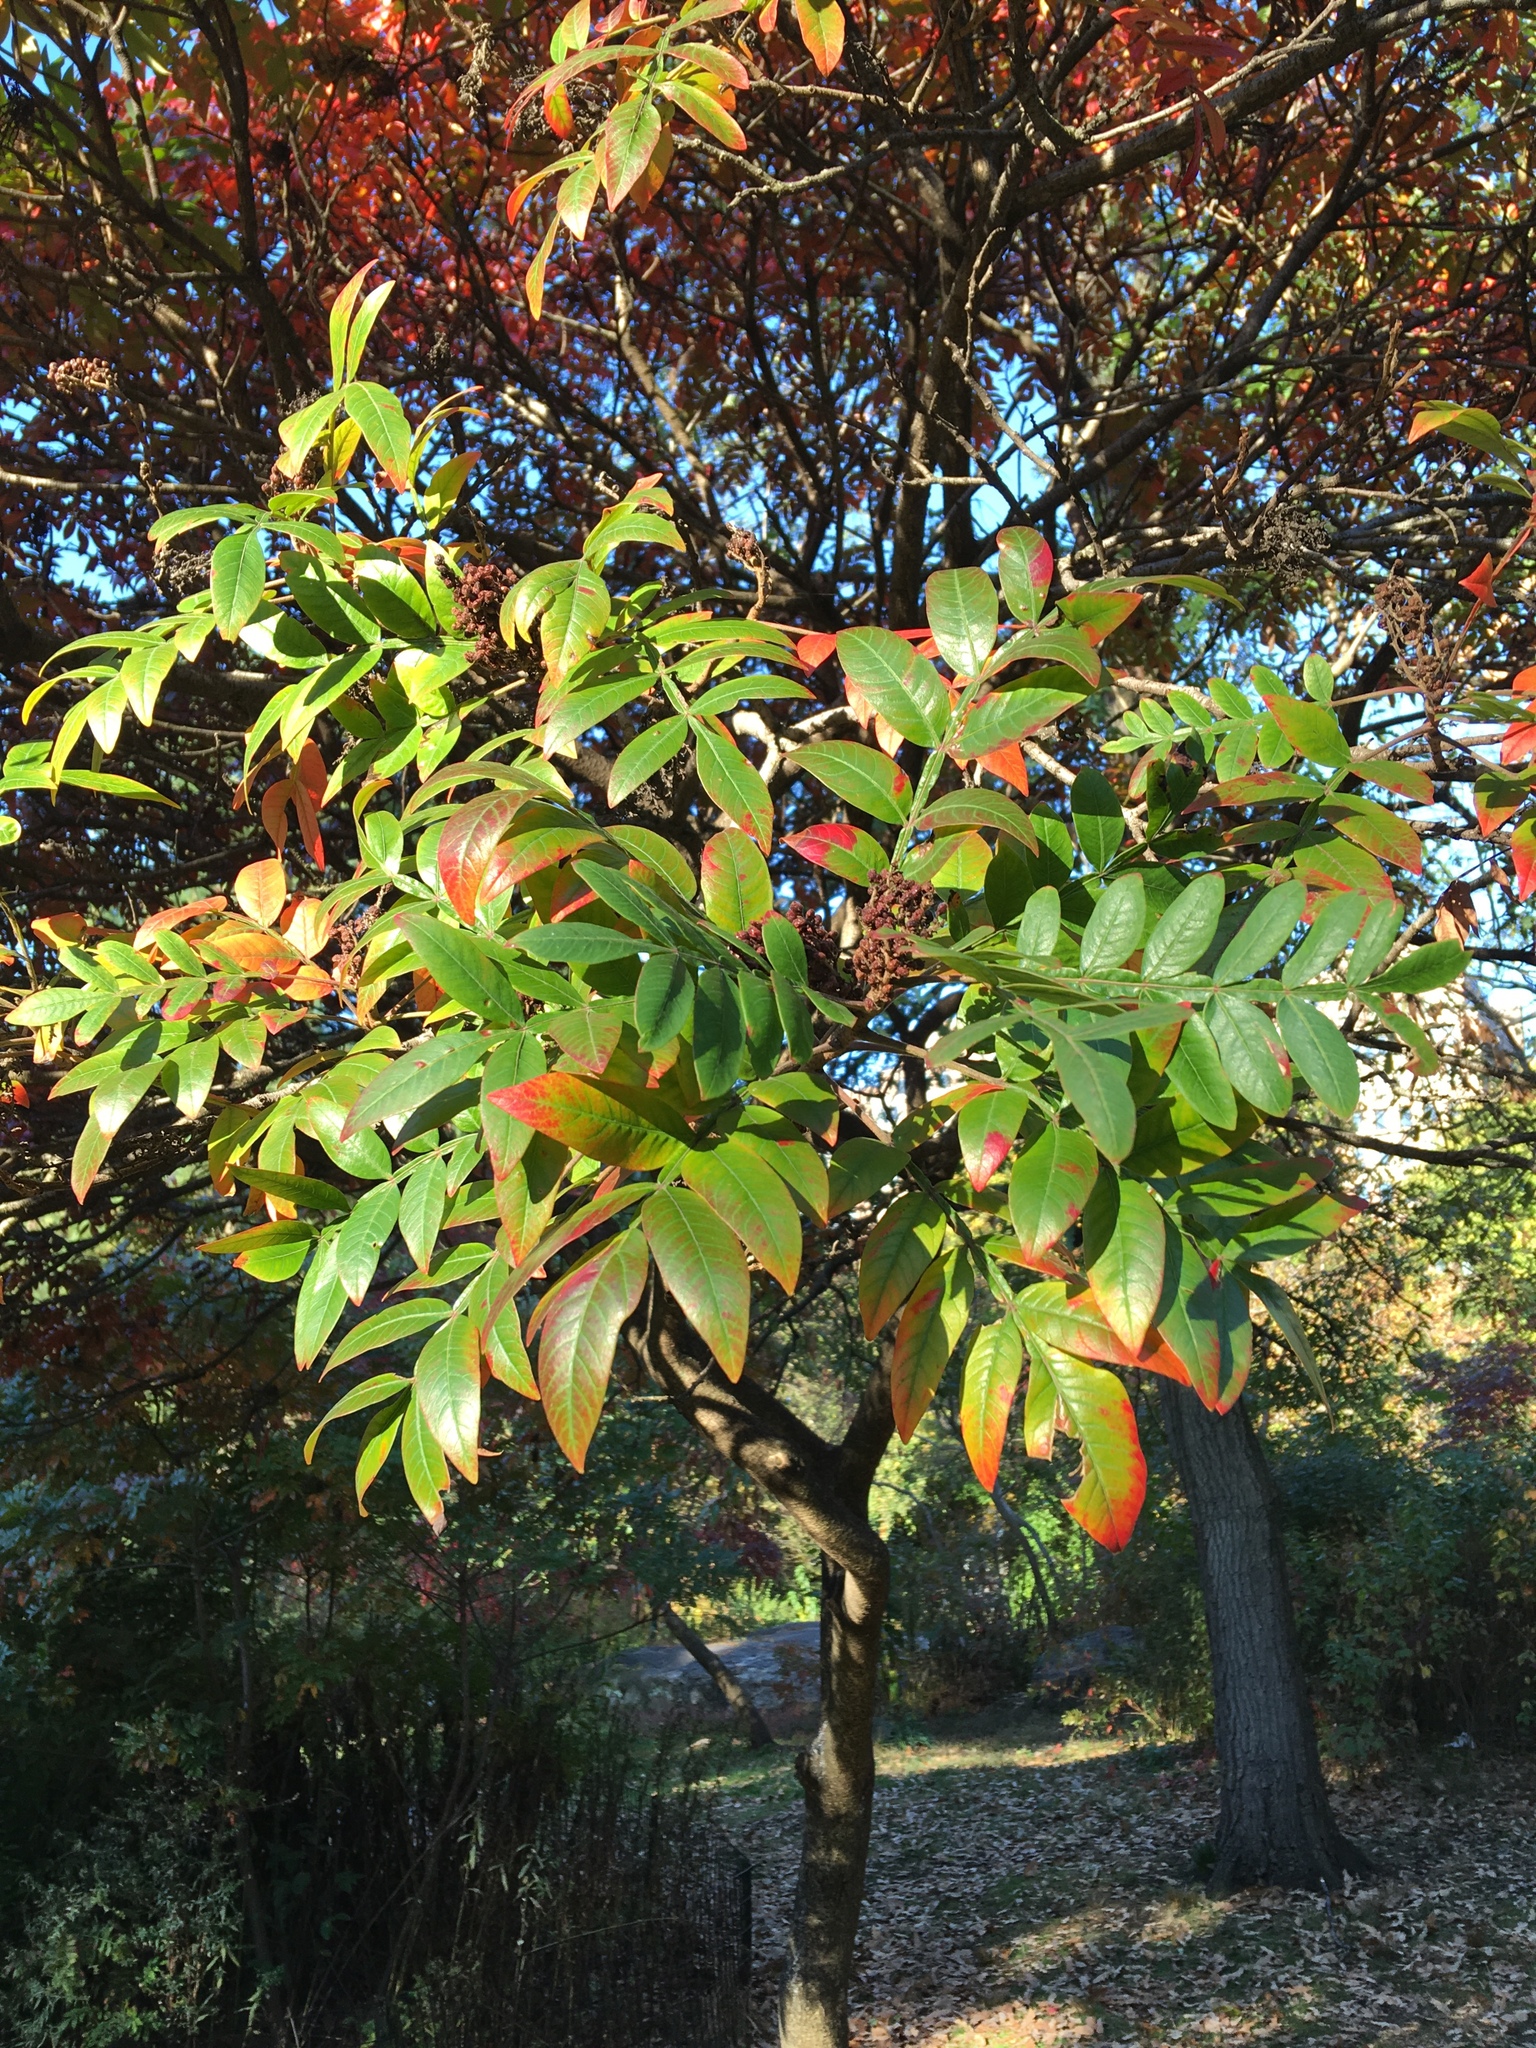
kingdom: Plantae
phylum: Tracheophyta
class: Magnoliopsida
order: Sapindales
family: Anacardiaceae
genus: Rhus
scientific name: Rhus copallina
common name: Shining sumac
